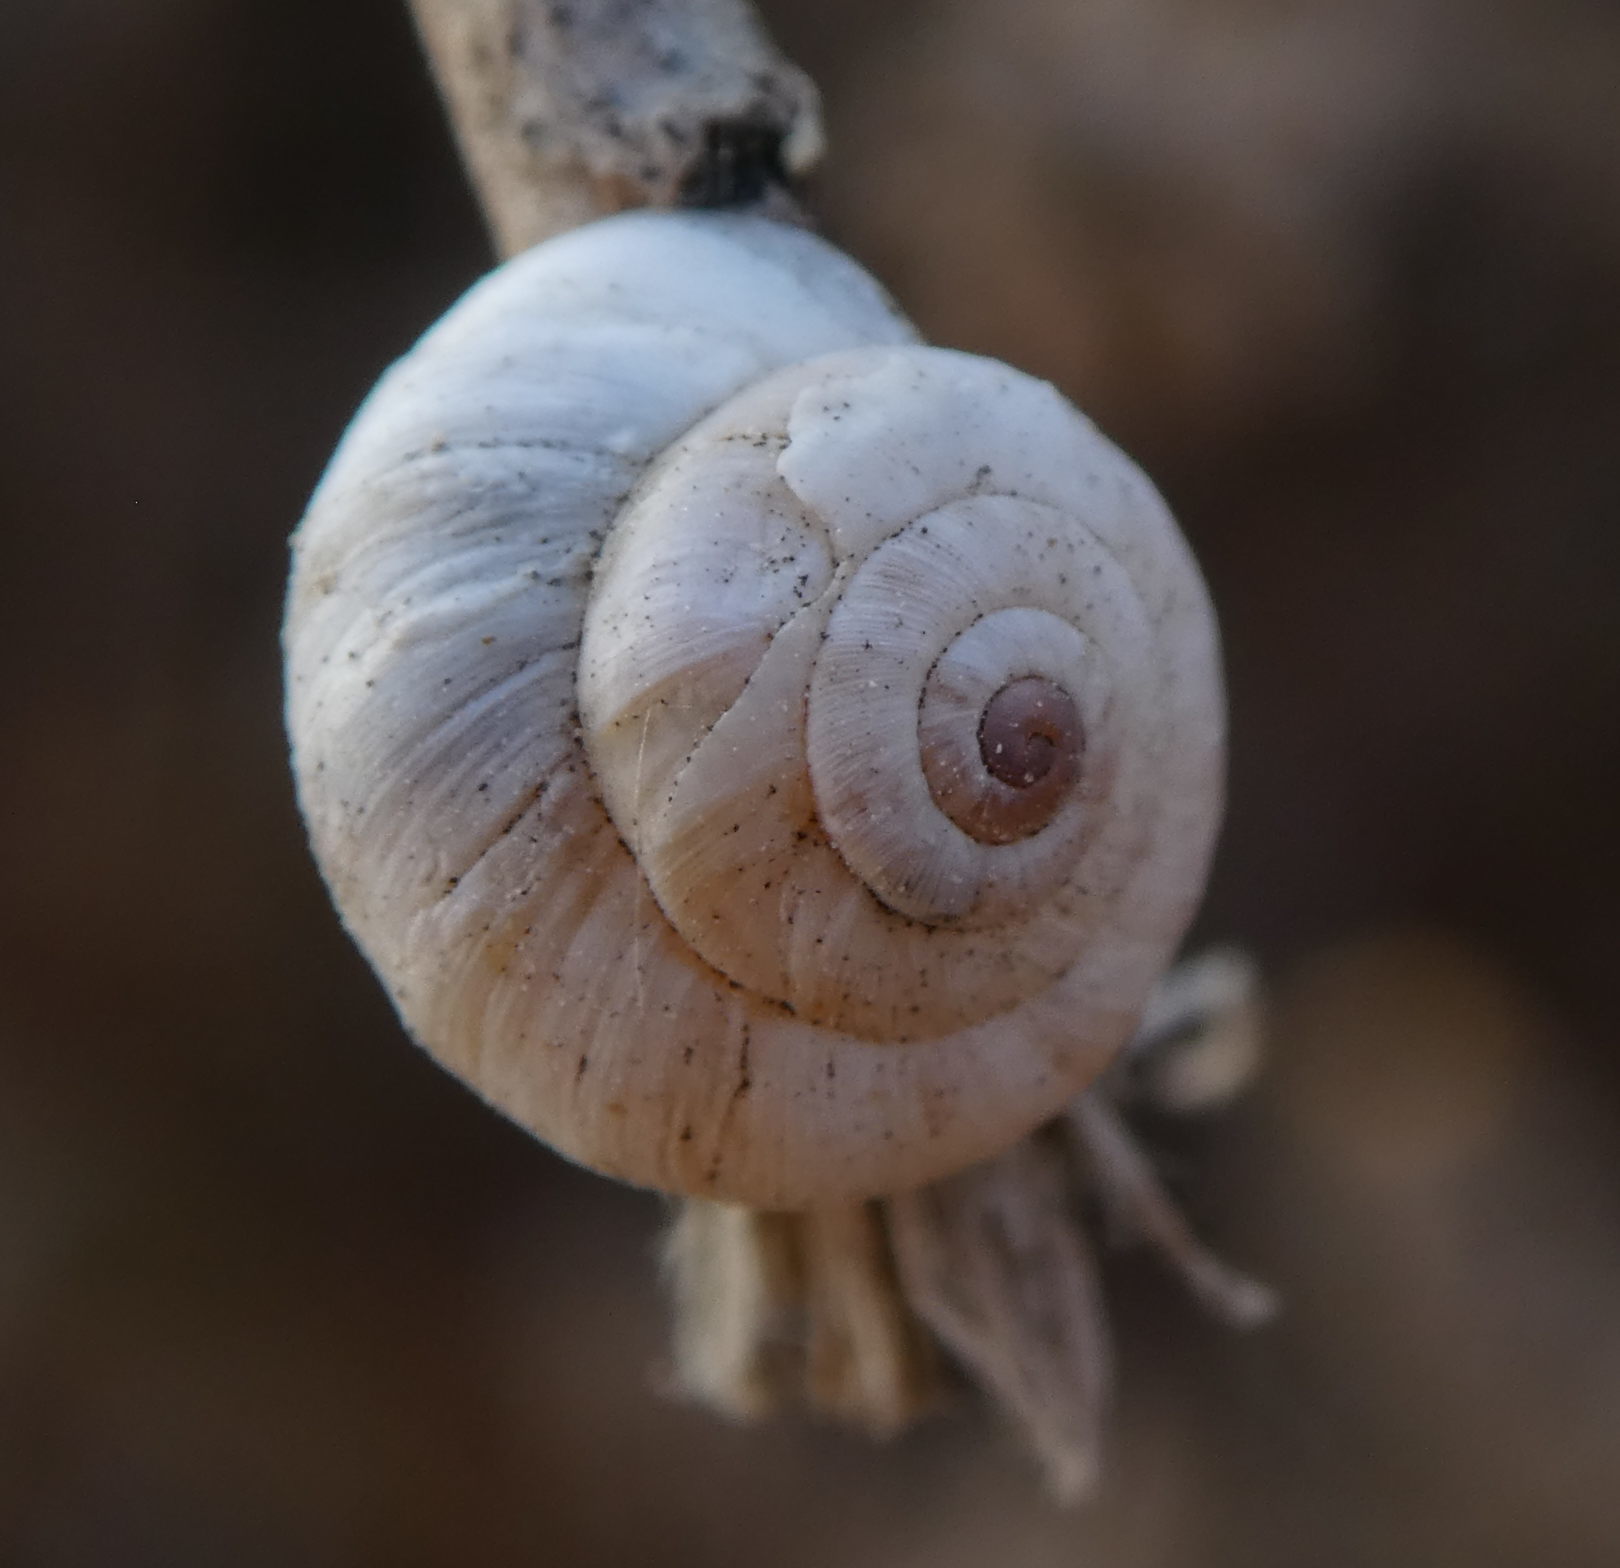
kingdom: Animalia
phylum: Mollusca
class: Gastropoda
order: Stylommatophora
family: Helicidae
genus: Theba
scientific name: Theba pisana
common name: White snail
